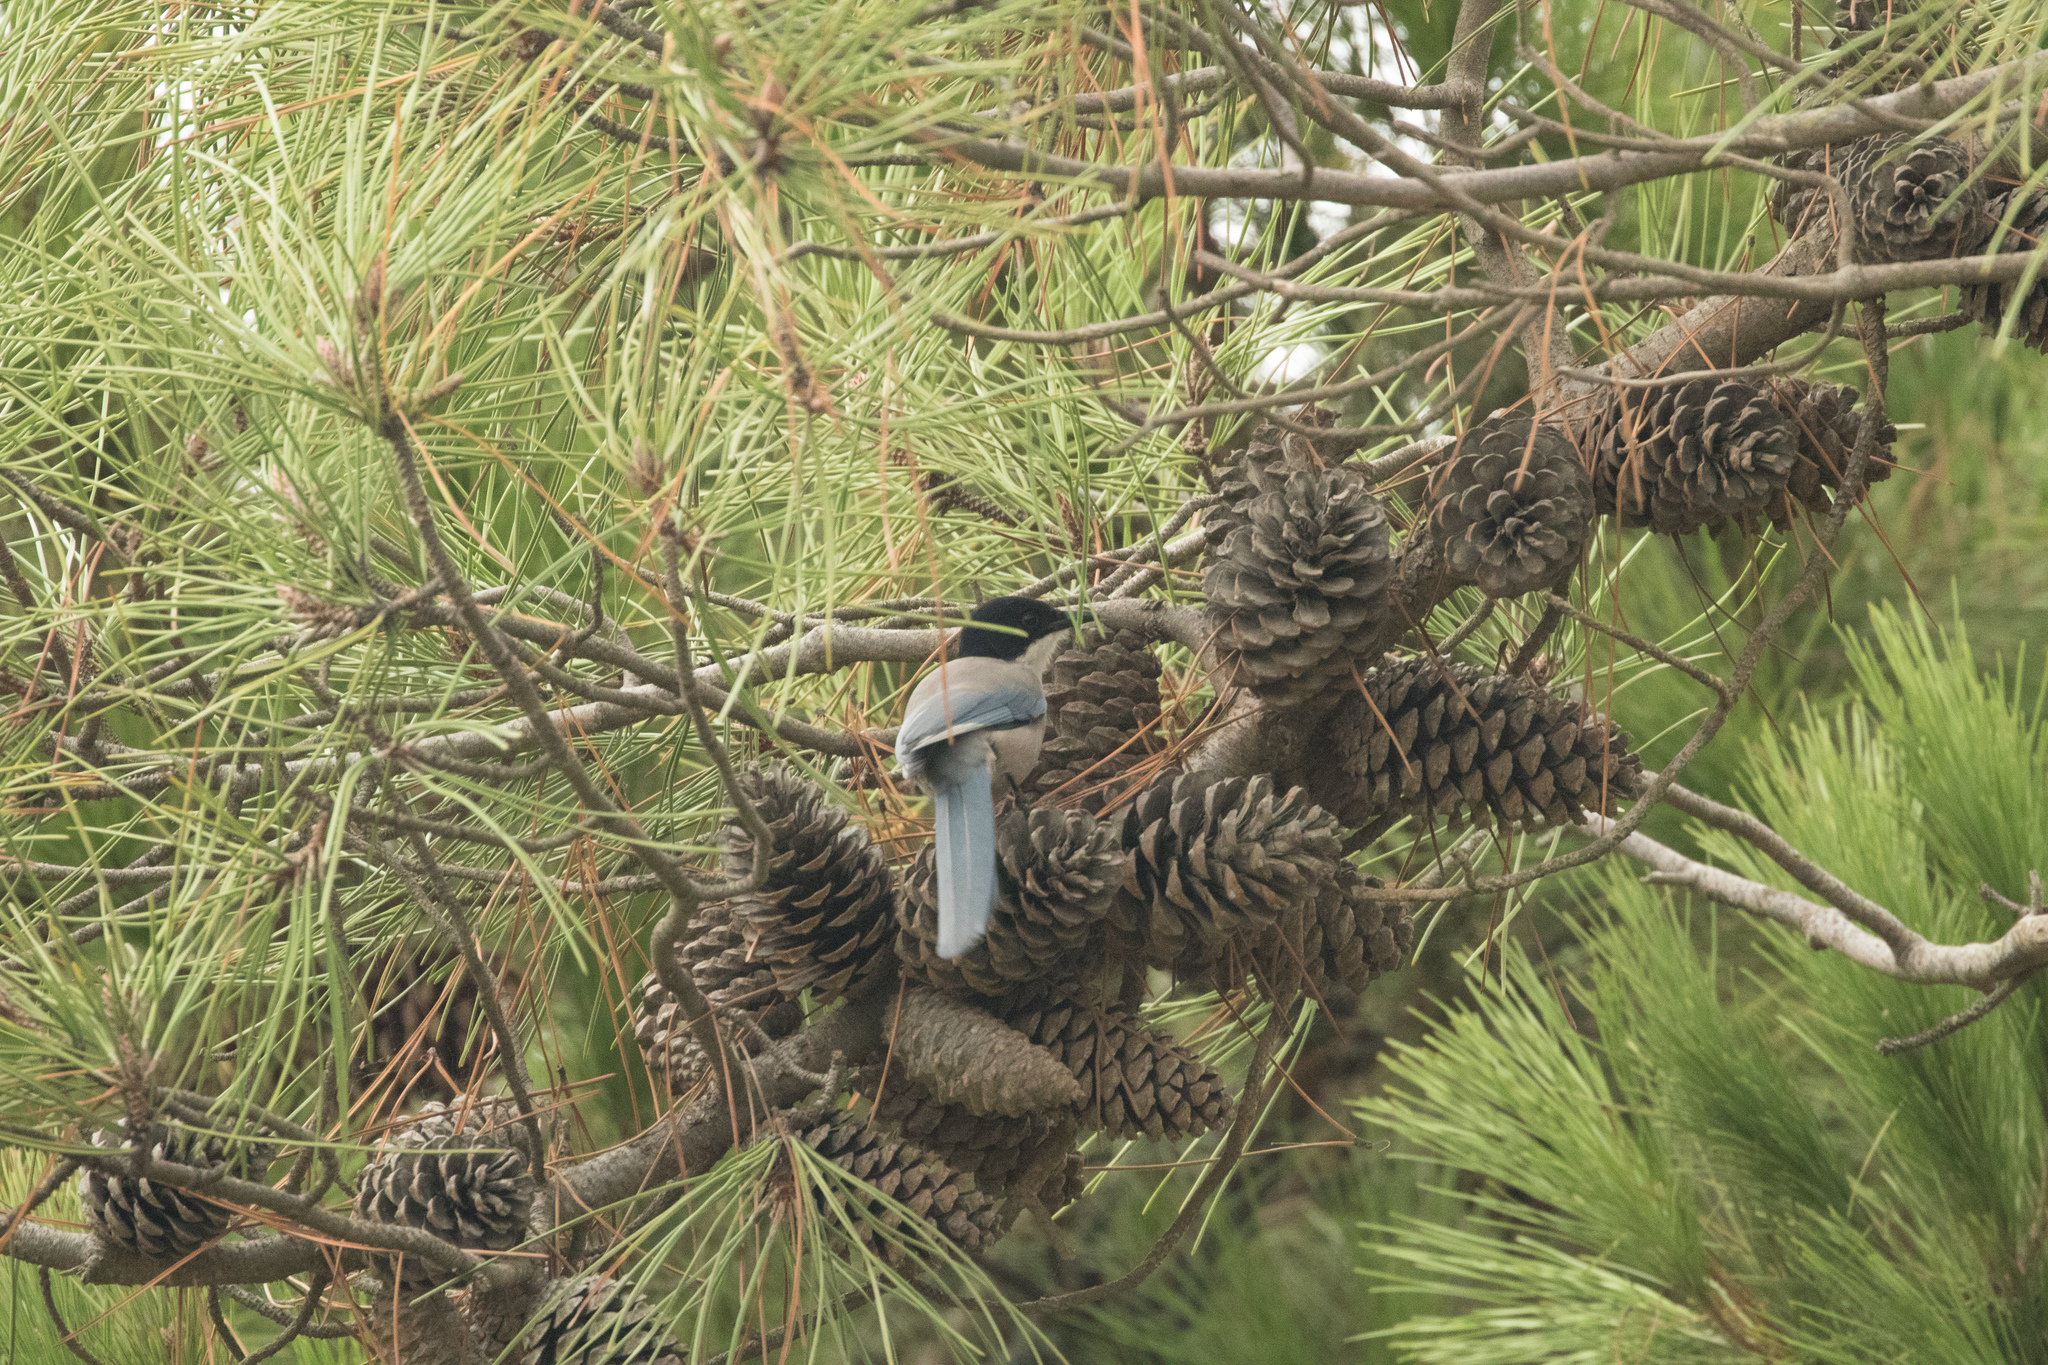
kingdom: Animalia
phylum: Chordata
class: Aves
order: Passeriformes
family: Corvidae
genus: Cyanopica
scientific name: Cyanopica cooki
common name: Iberian magpie
